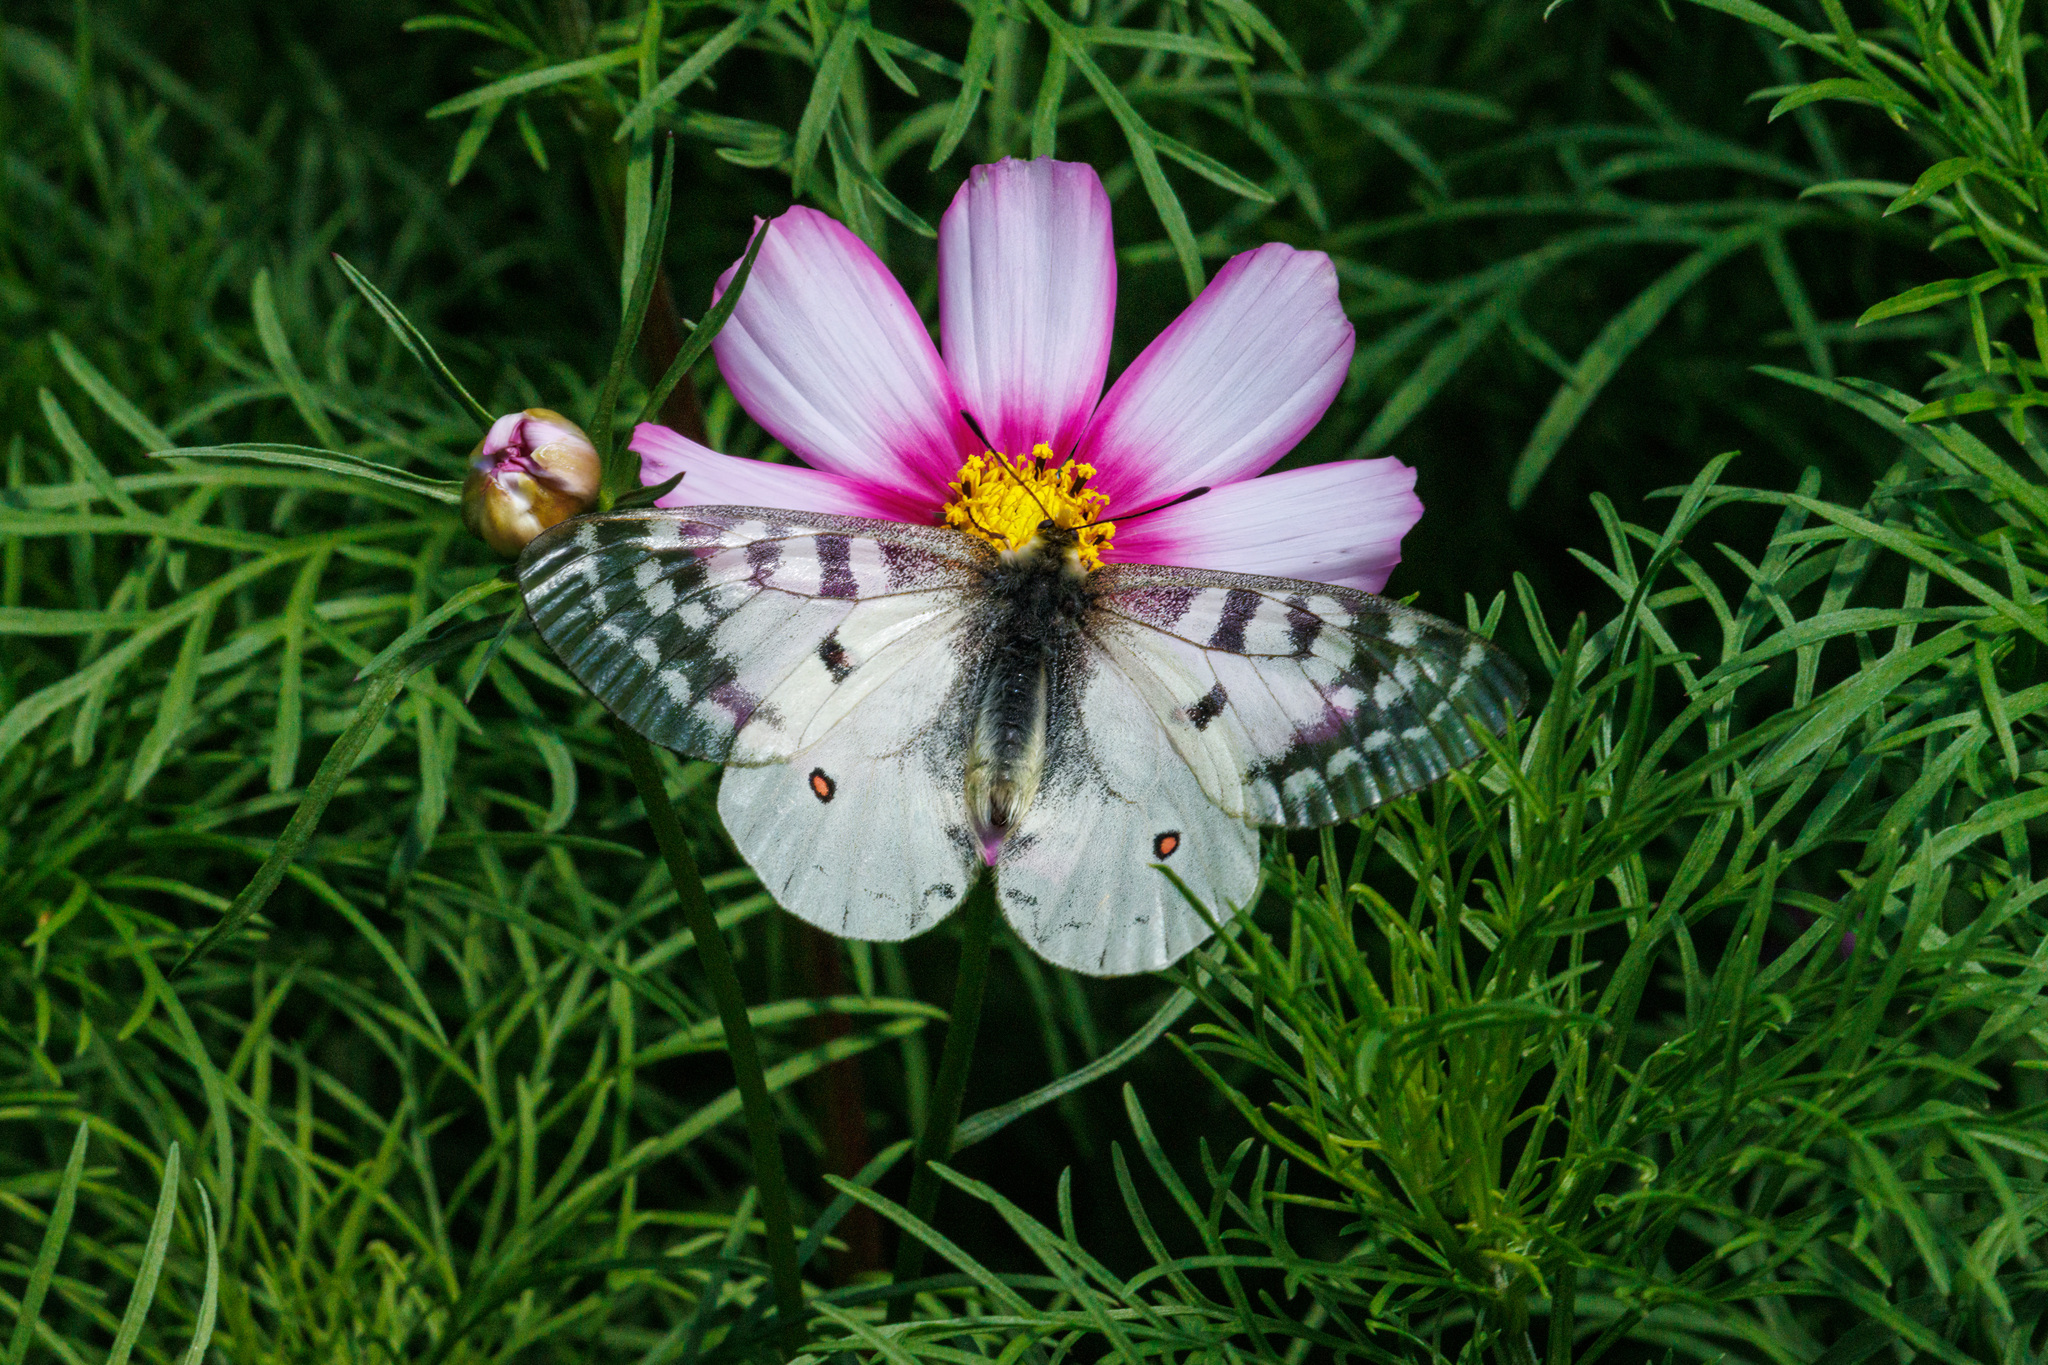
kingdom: Animalia
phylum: Arthropoda
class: Insecta
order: Lepidoptera
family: Papilionidae
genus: Parnassius
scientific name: Parnassius clodius
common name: American apollo
